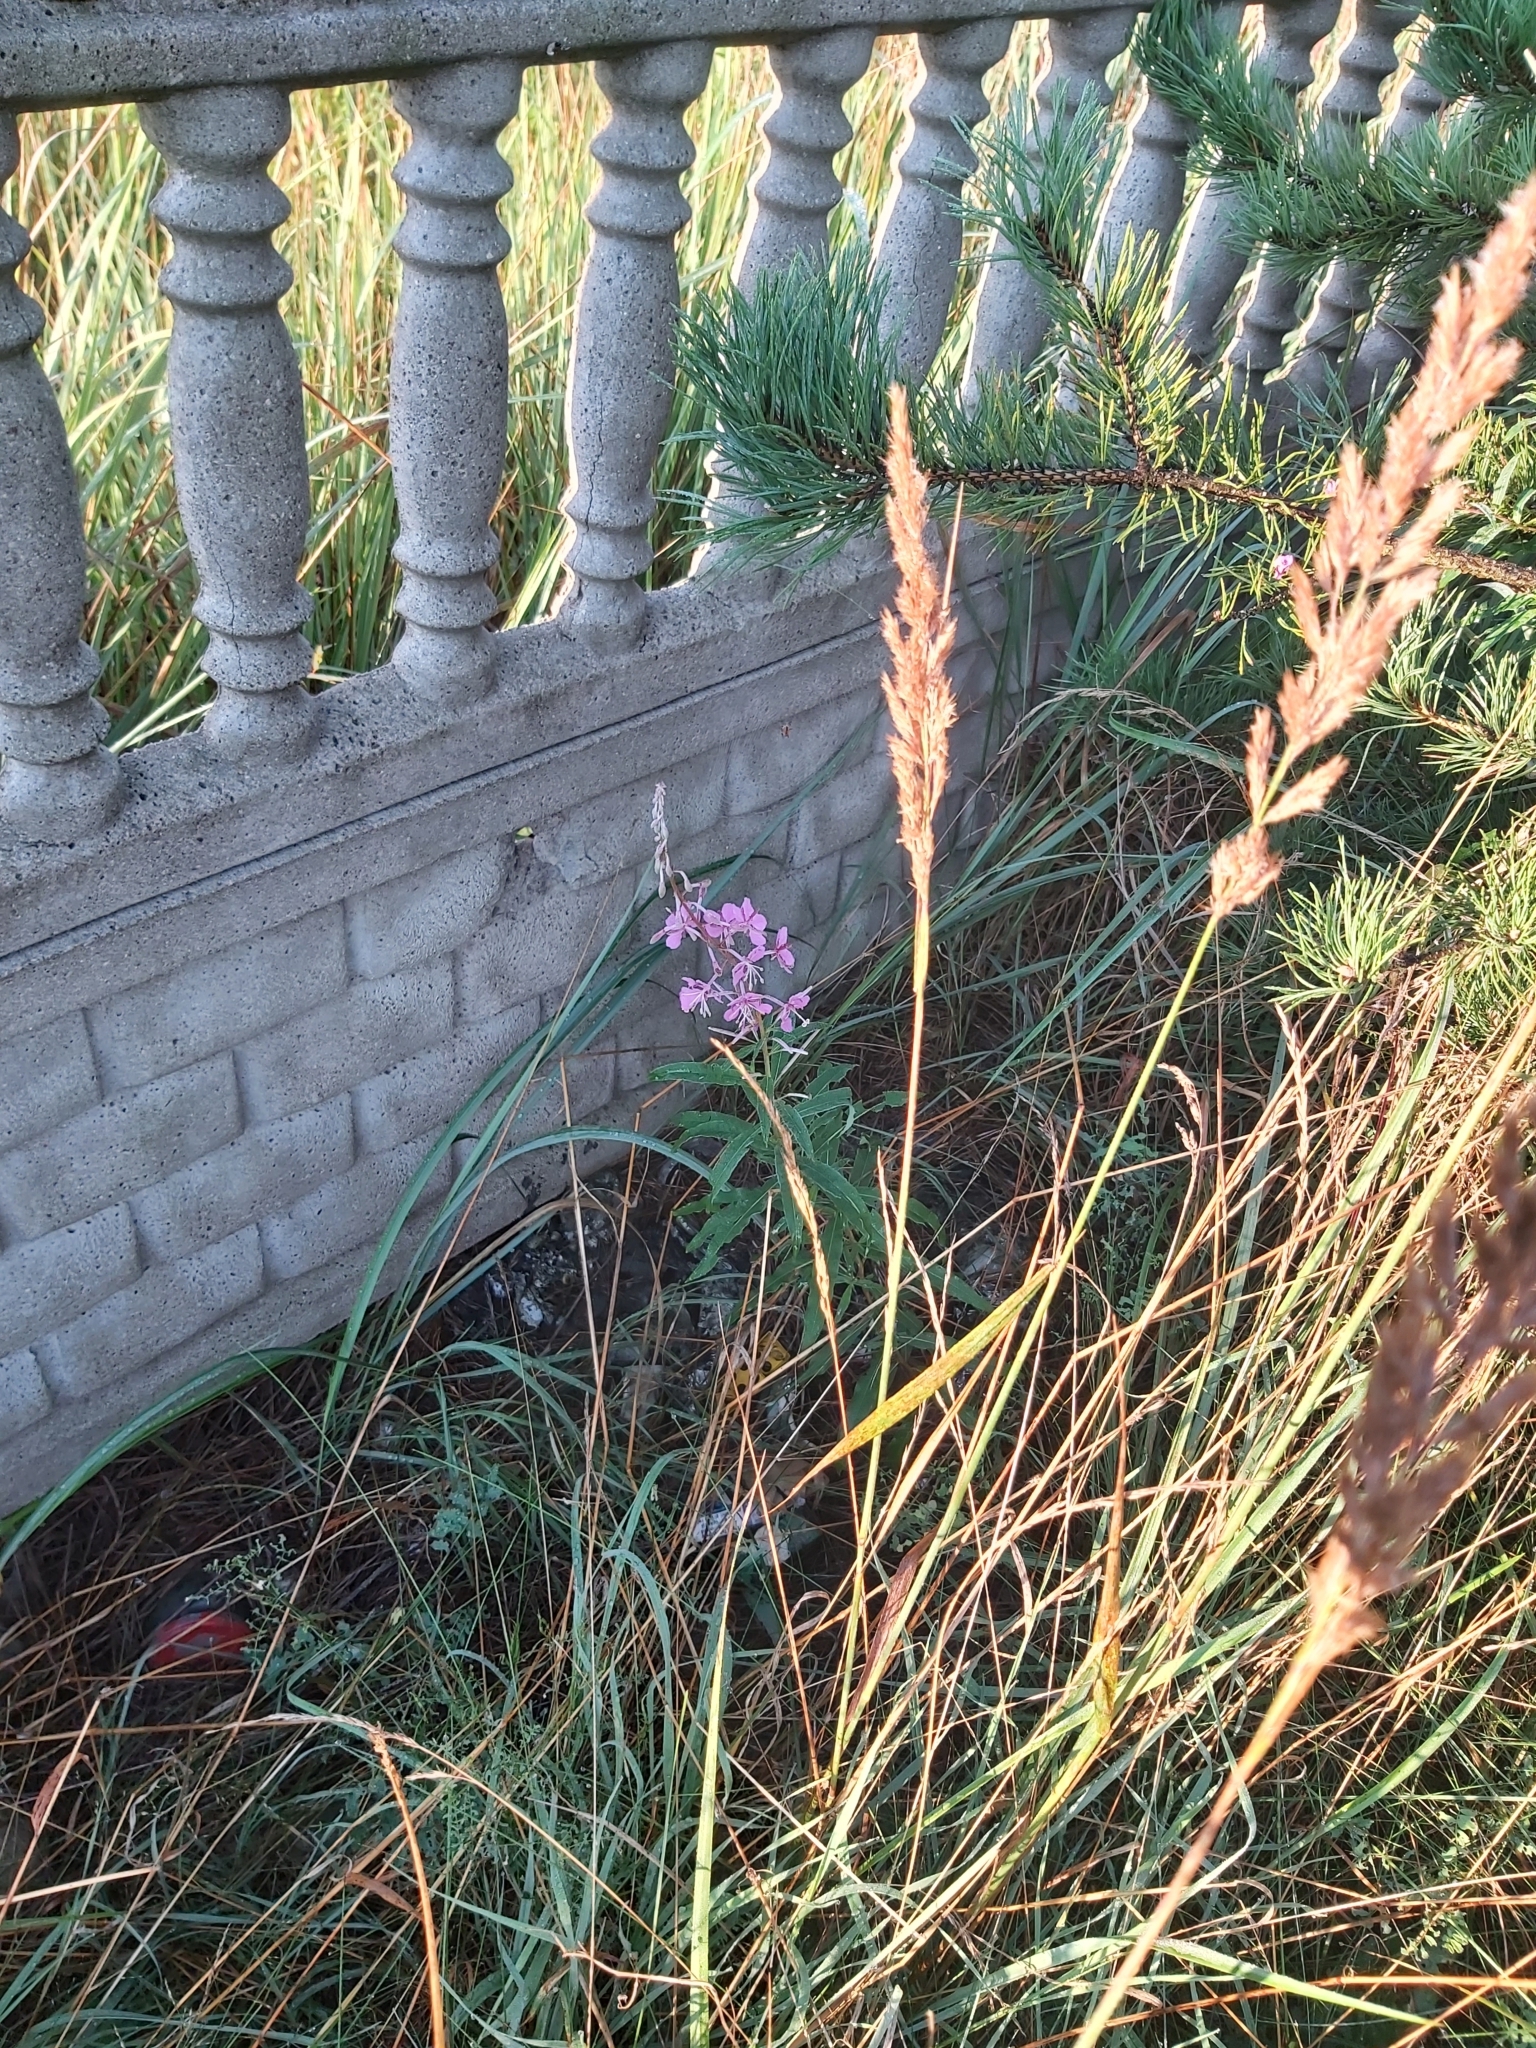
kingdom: Plantae
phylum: Tracheophyta
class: Magnoliopsida
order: Myrtales
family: Onagraceae
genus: Chamaenerion
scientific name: Chamaenerion angustifolium
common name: Fireweed
